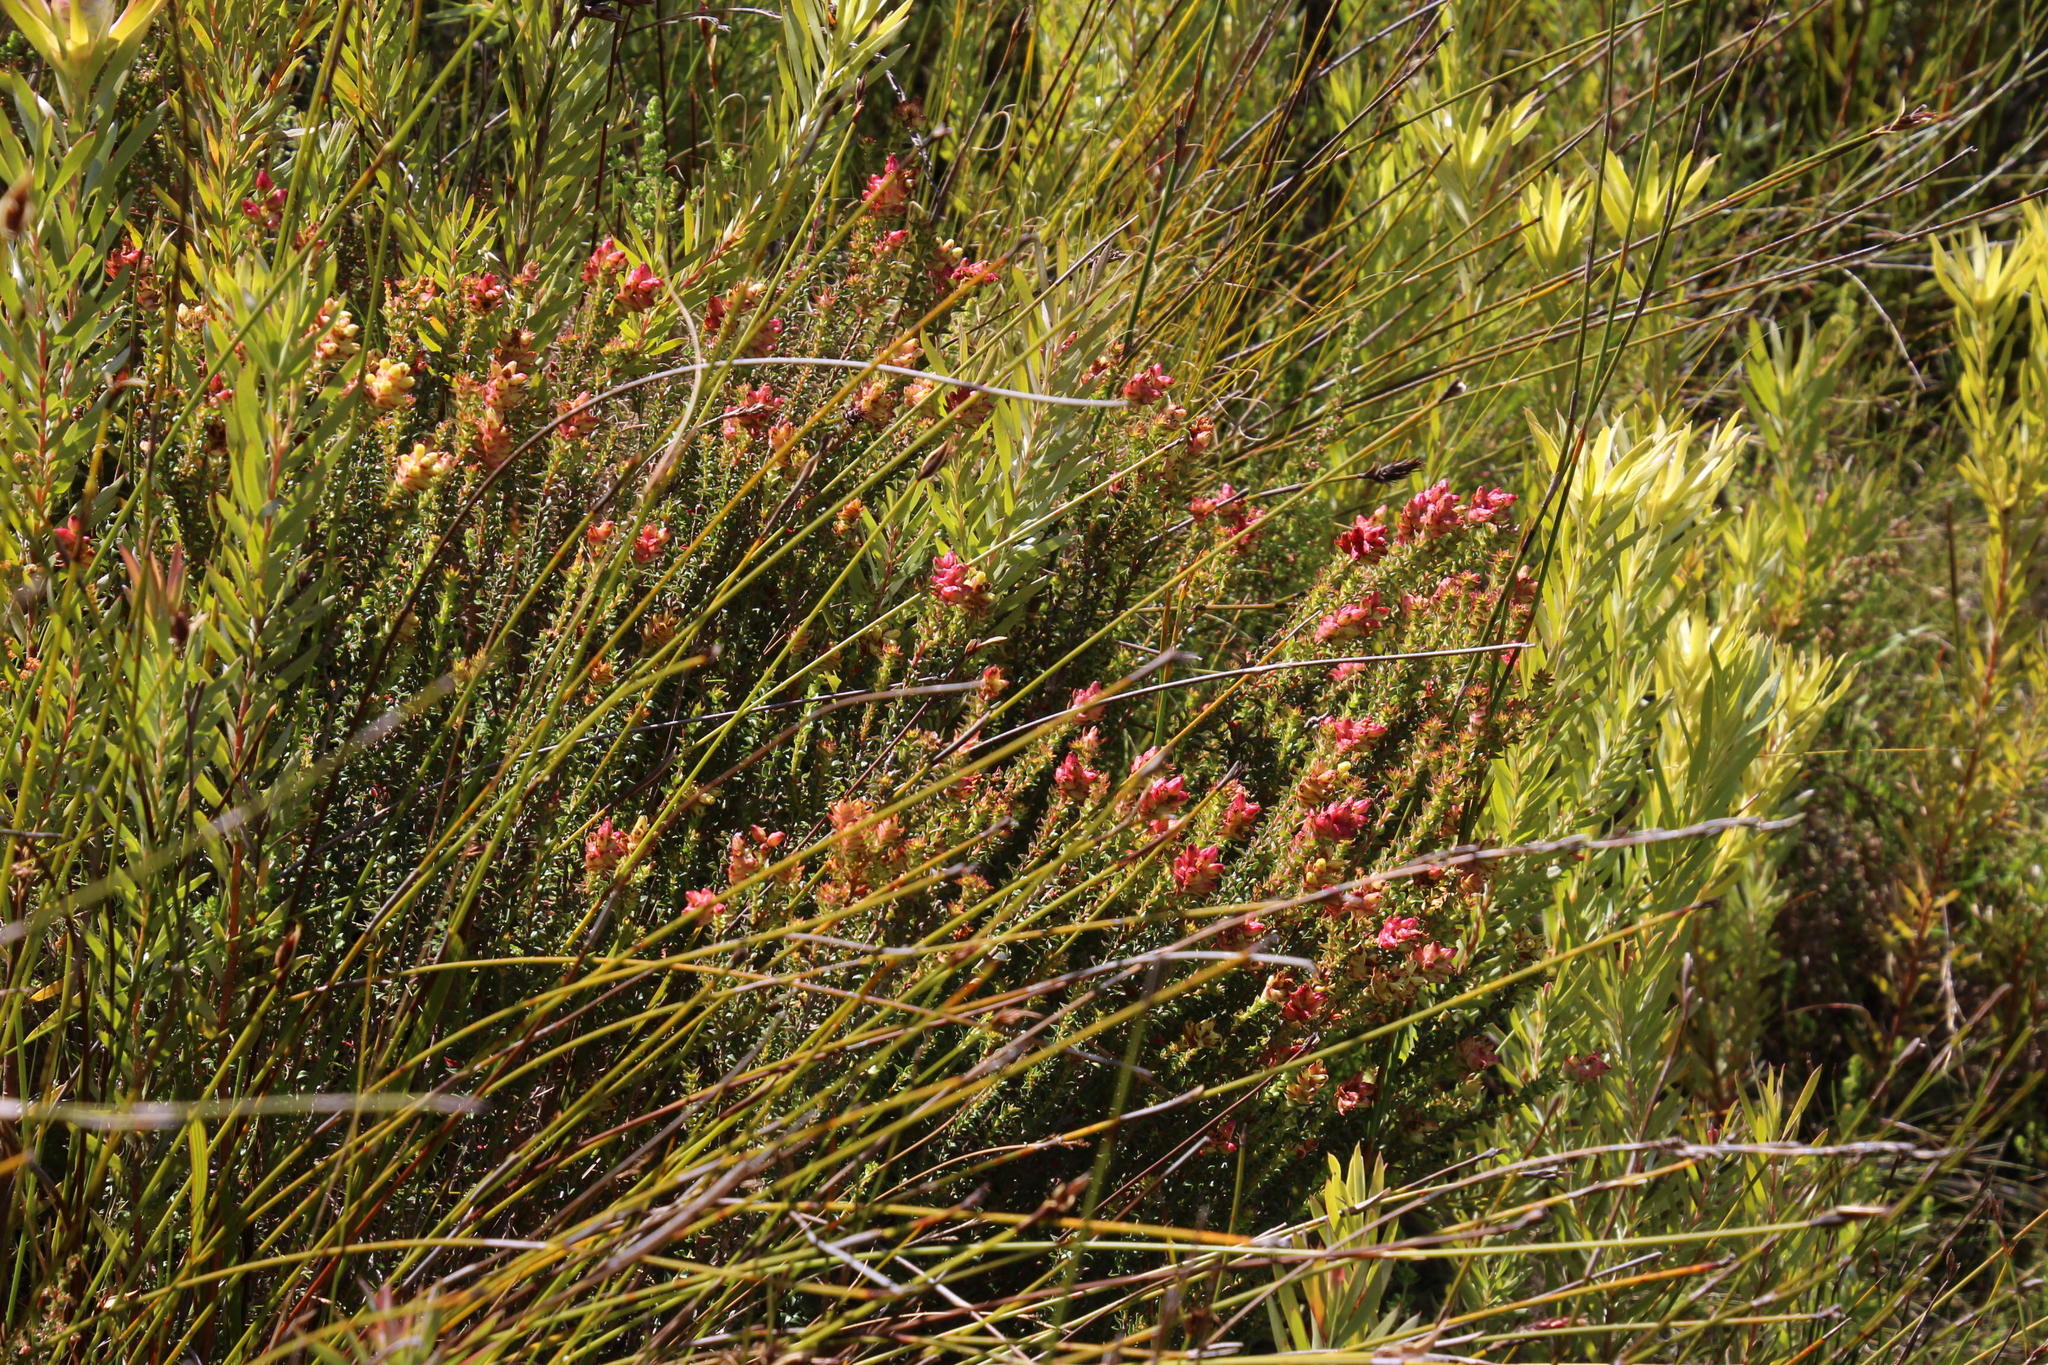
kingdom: Plantae
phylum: Tracheophyta
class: Magnoliopsida
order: Myrtales
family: Penaeaceae
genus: Penaea
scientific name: Penaea mucronata
